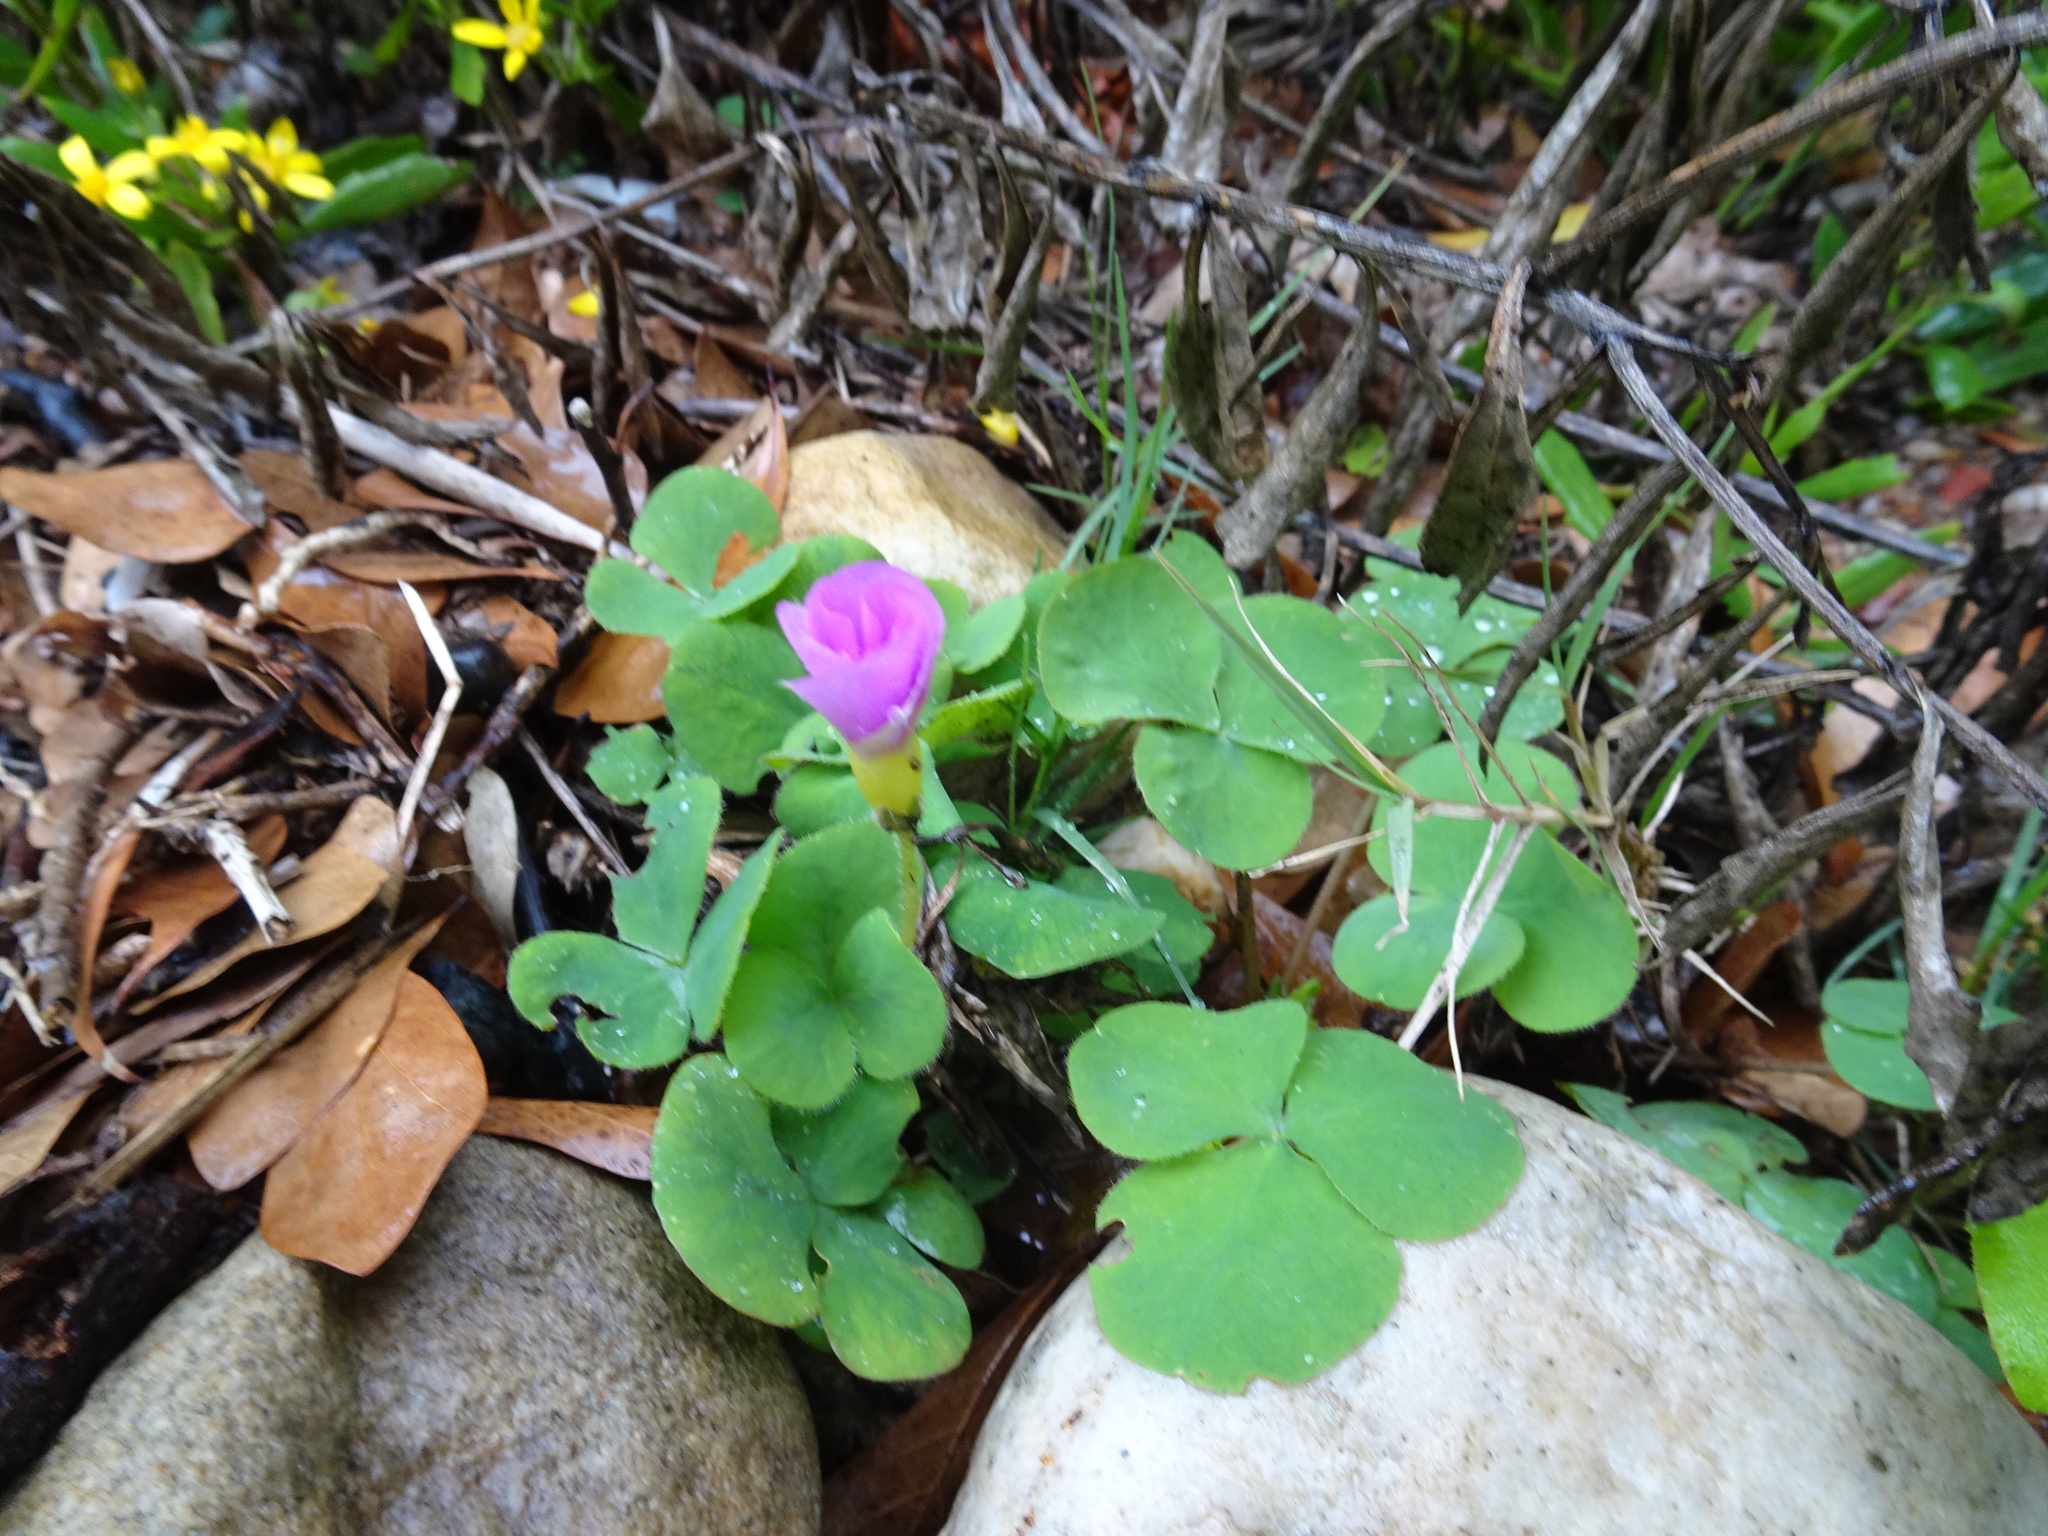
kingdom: Plantae
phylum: Tracheophyta
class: Magnoliopsida
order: Oxalidales
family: Oxalidaceae
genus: Oxalis
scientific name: Oxalis purpurea
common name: Purple woodsorrel
